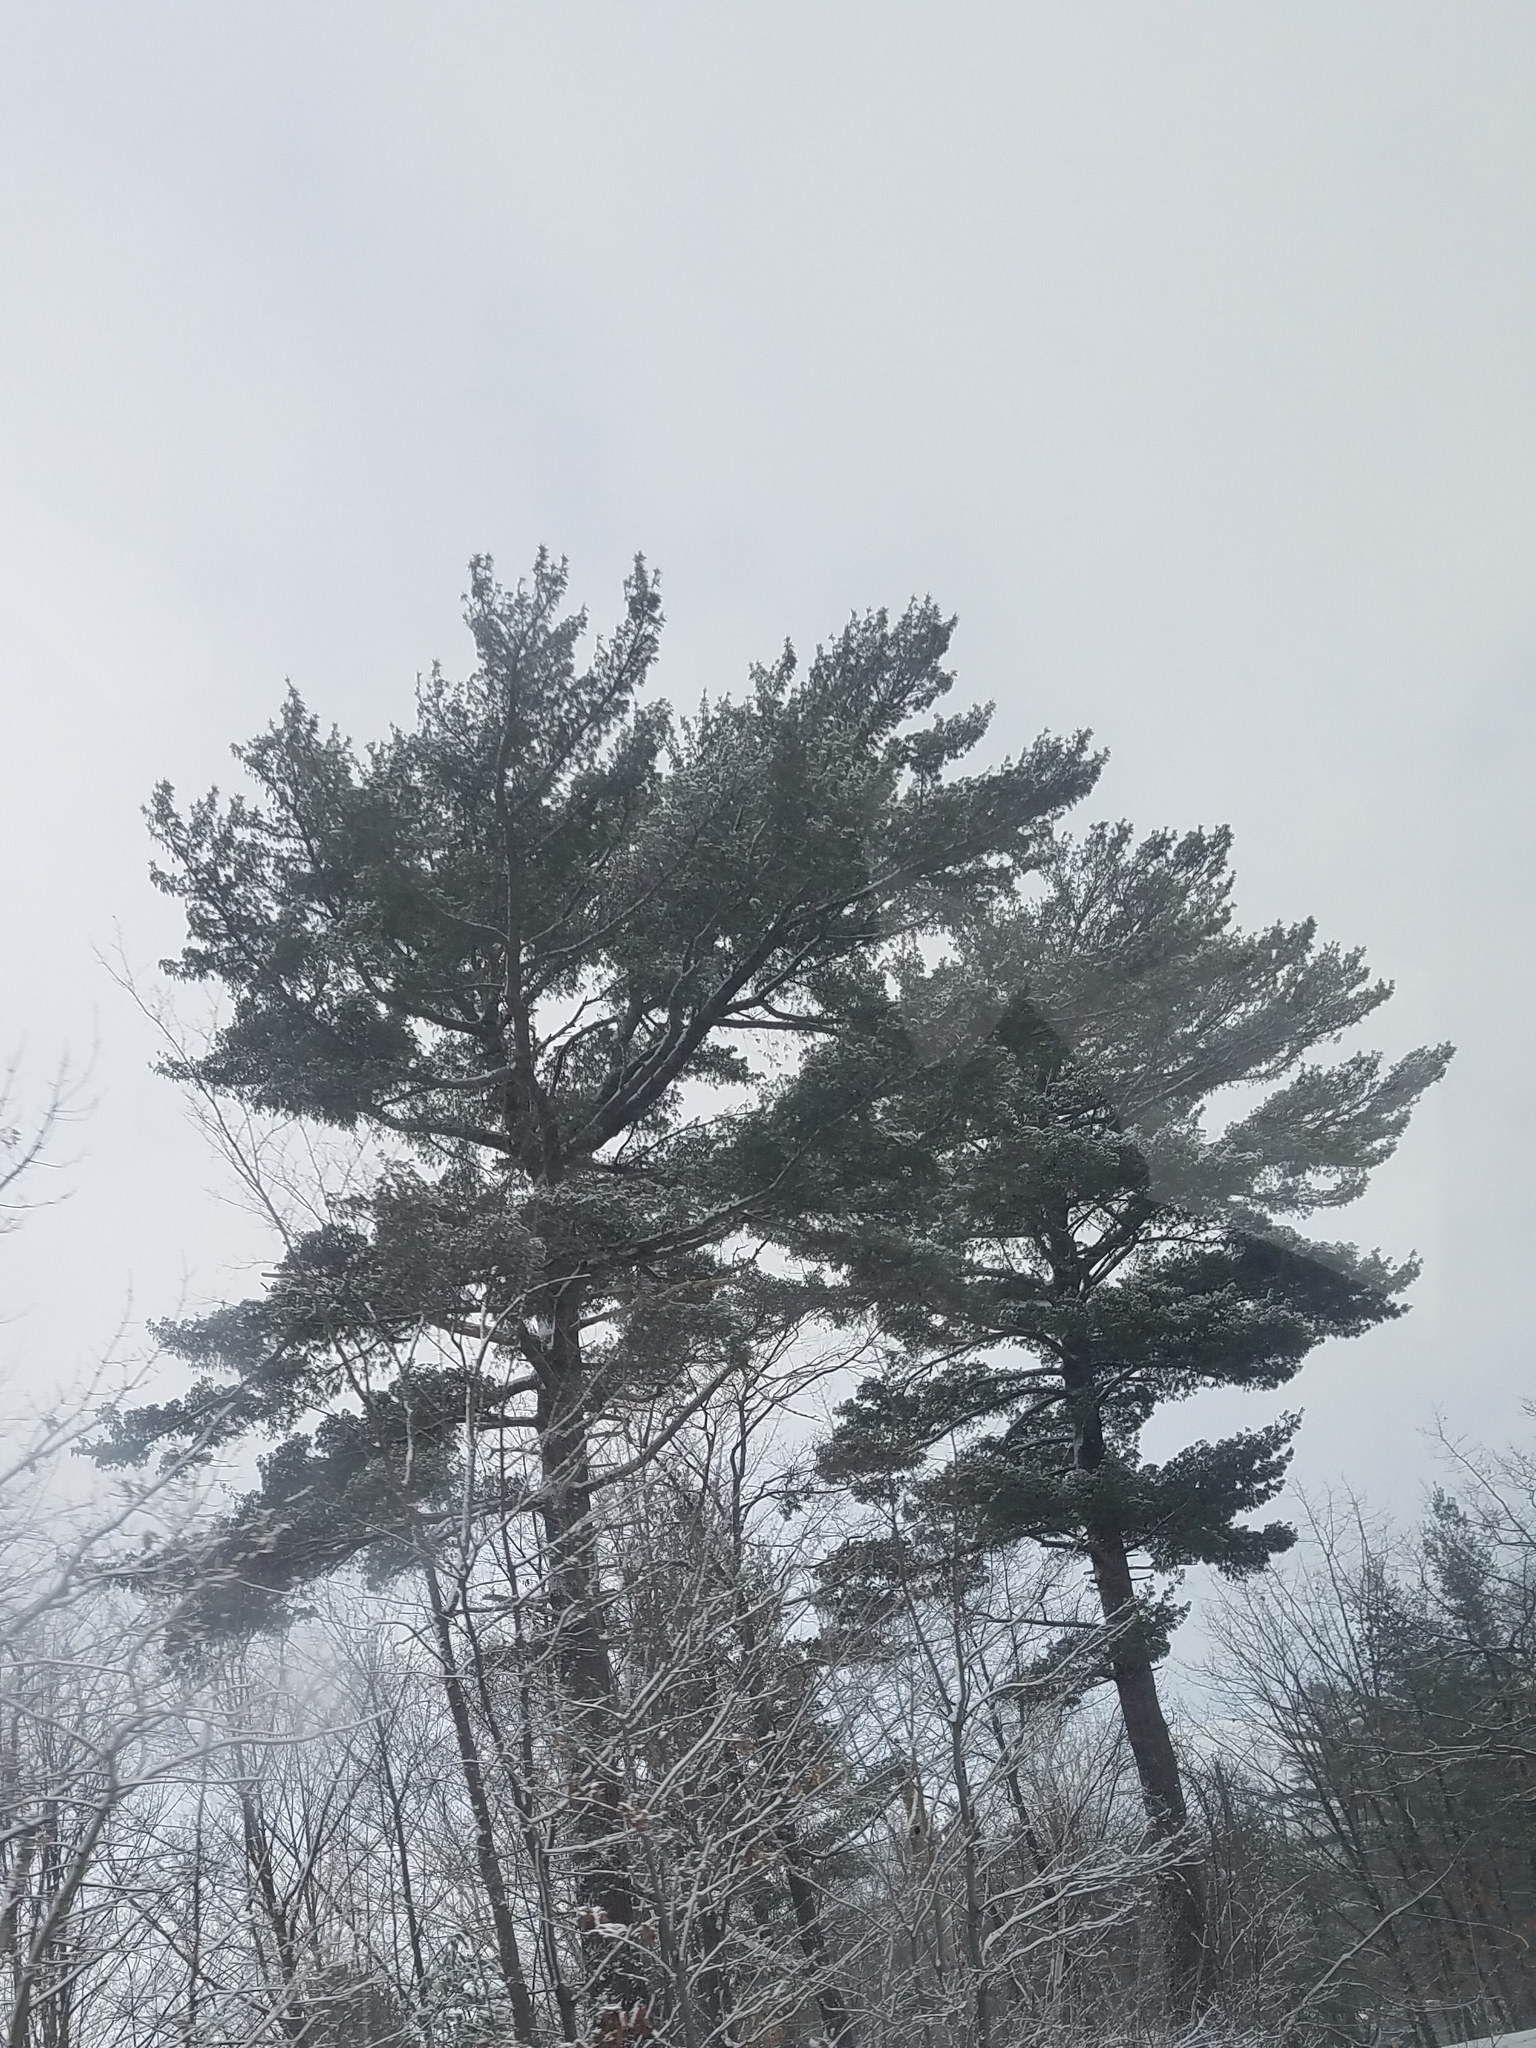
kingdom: Plantae
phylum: Tracheophyta
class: Pinopsida
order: Pinales
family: Pinaceae
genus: Pinus
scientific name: Pinus strobus
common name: Weymouth pine
